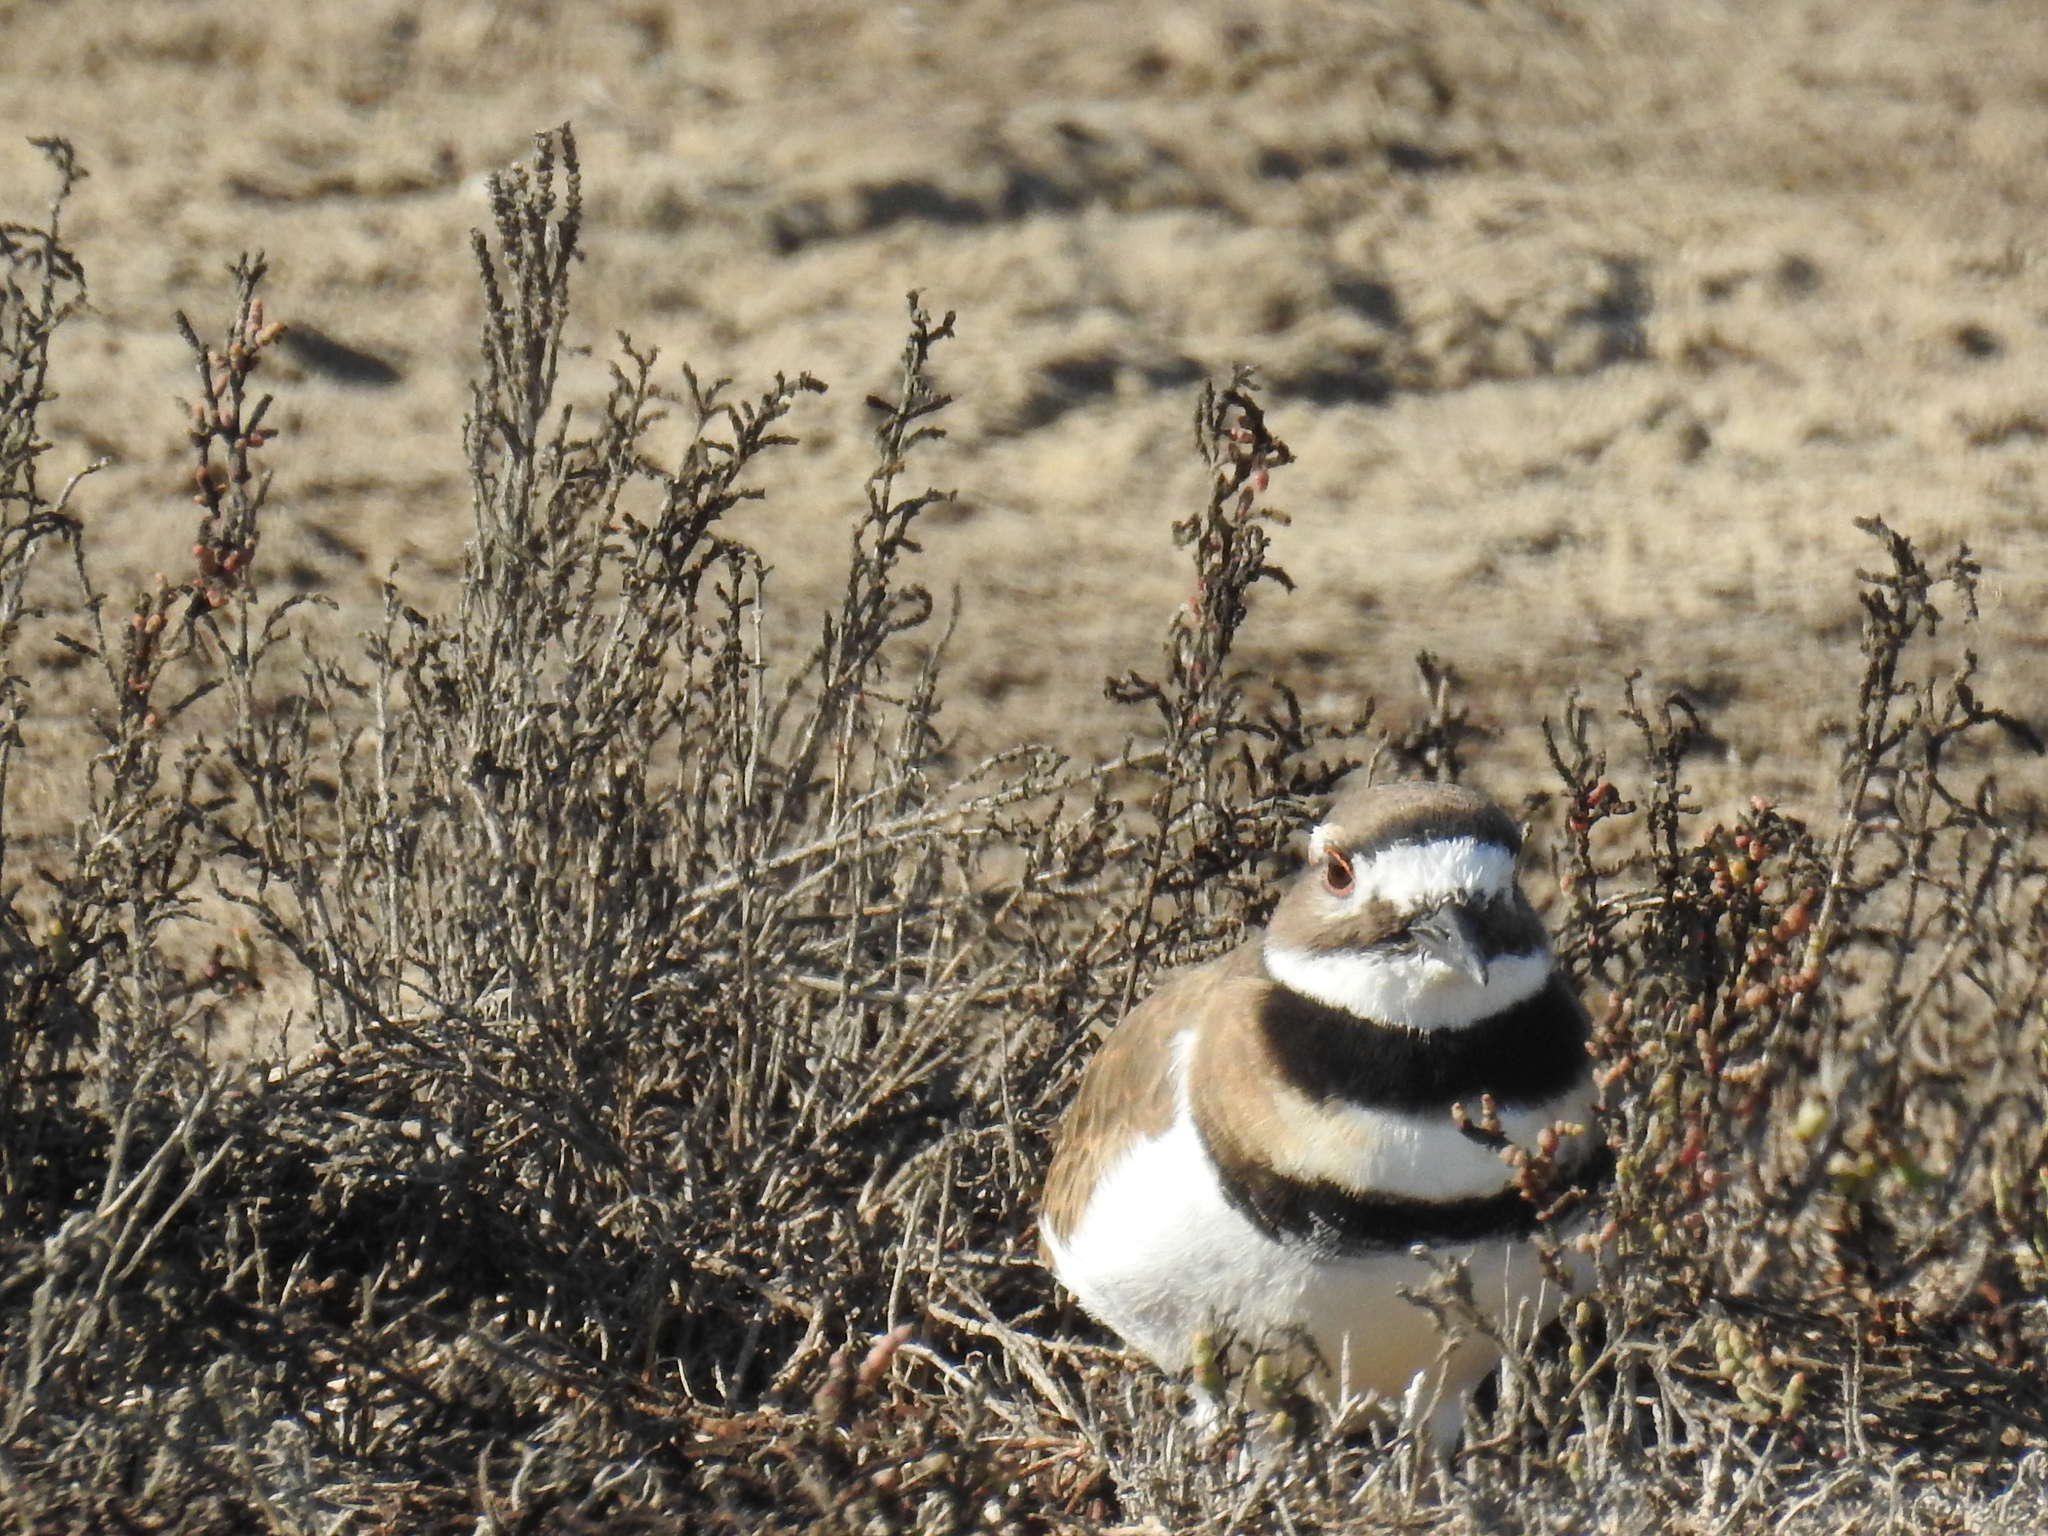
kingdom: Animalia
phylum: Chordata
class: Aves
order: Charadriiformes
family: Charadriidae
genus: Charadrius
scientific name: Charadrius vociferus
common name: Killdeer
